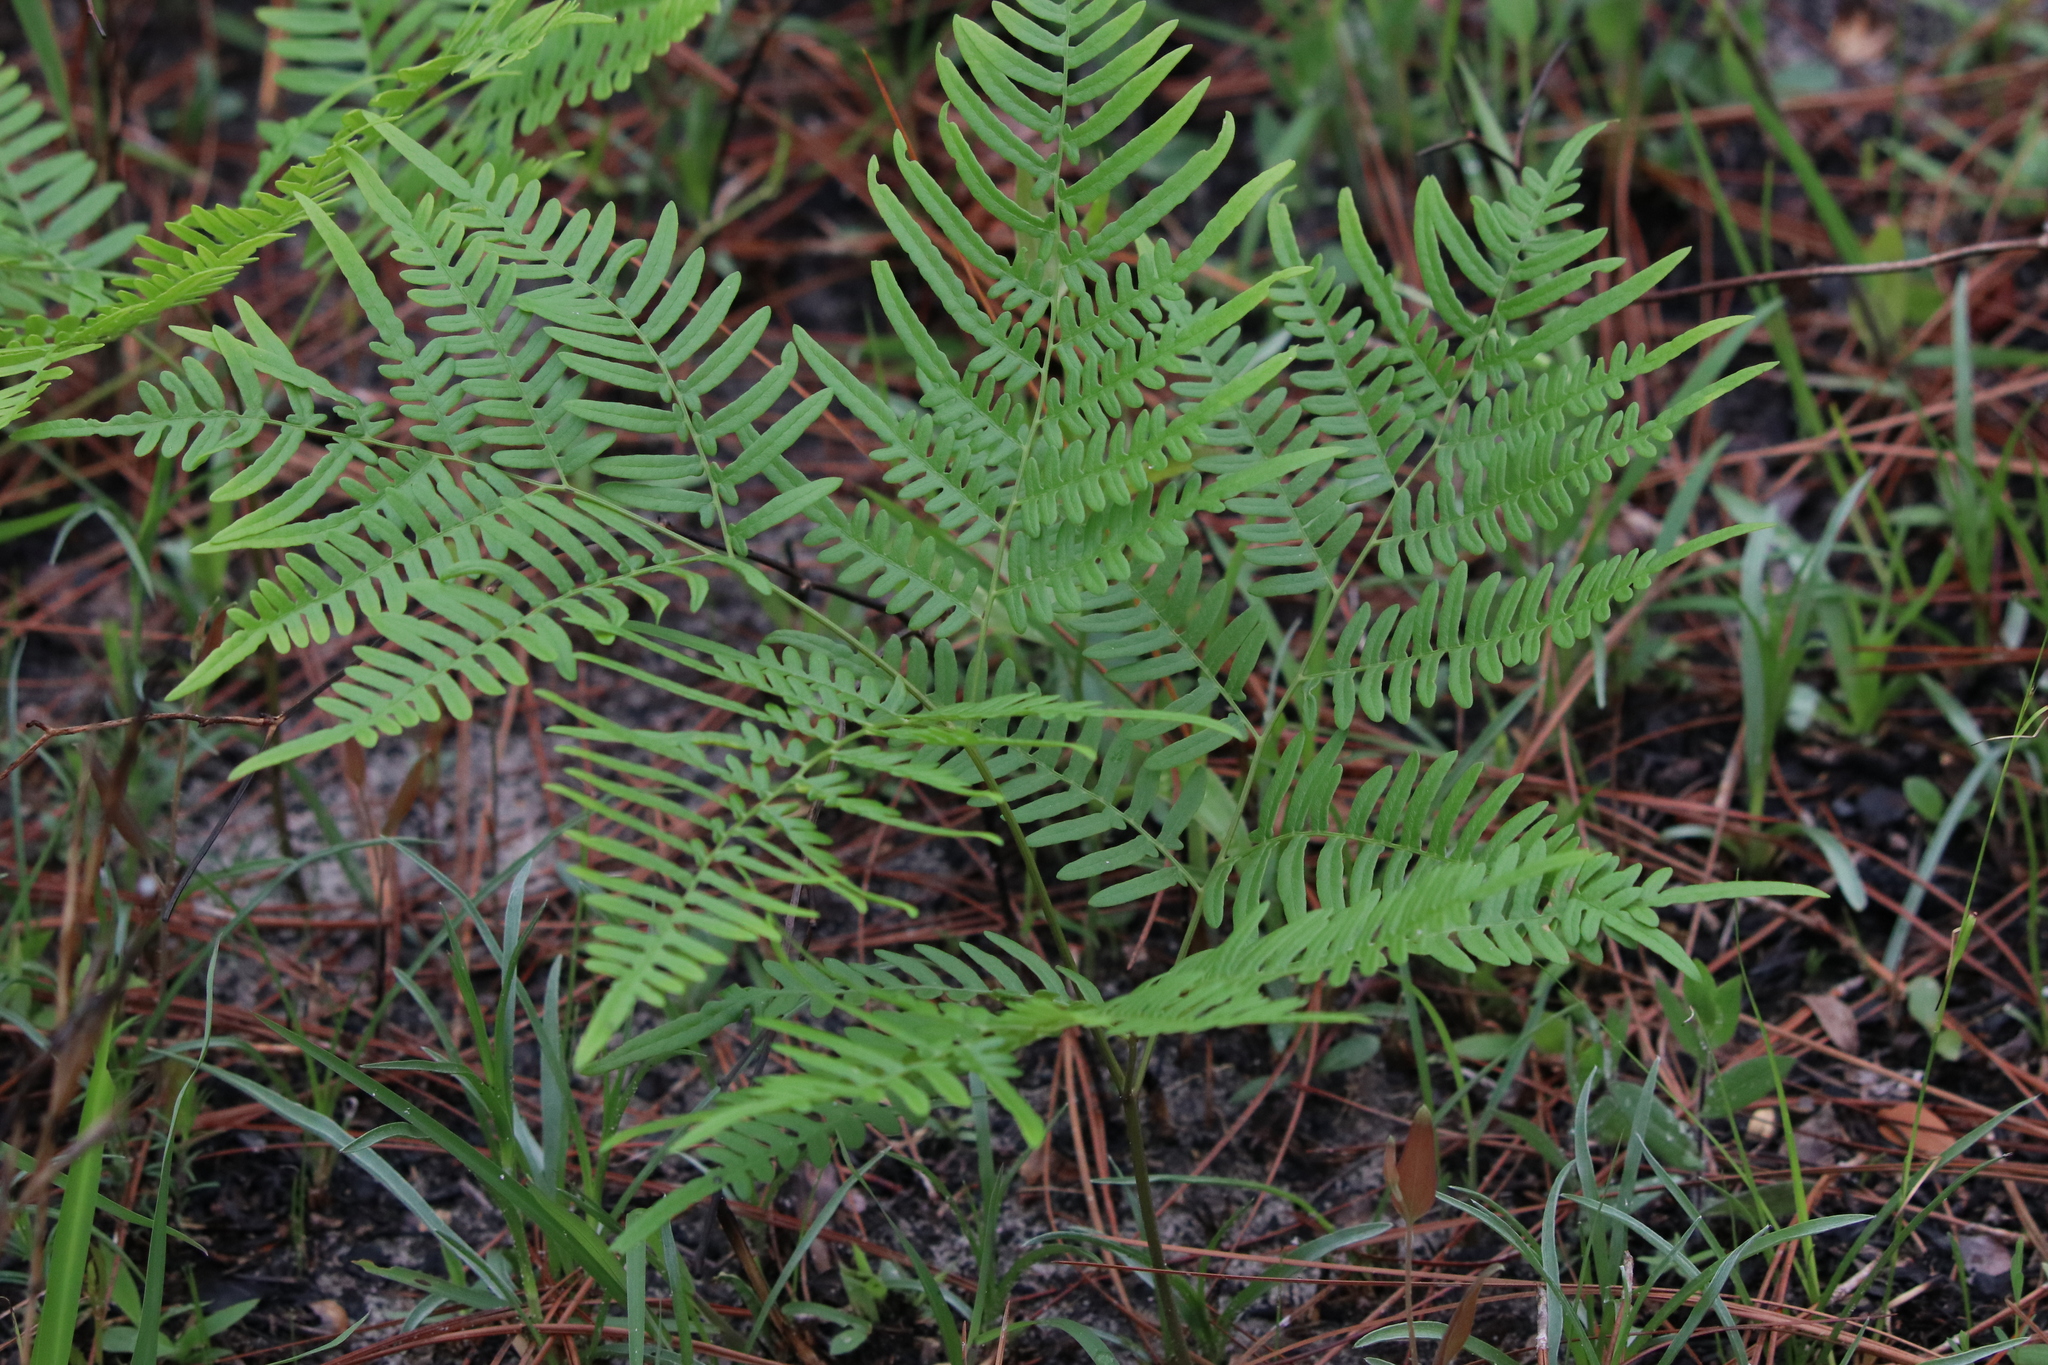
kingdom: Plantae
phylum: Tracheophyta
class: Polypodiopsida
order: Polypodiales
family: Dennstaedtiaceae
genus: Pteridium
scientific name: Pteridium aquilinum
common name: Bracken
